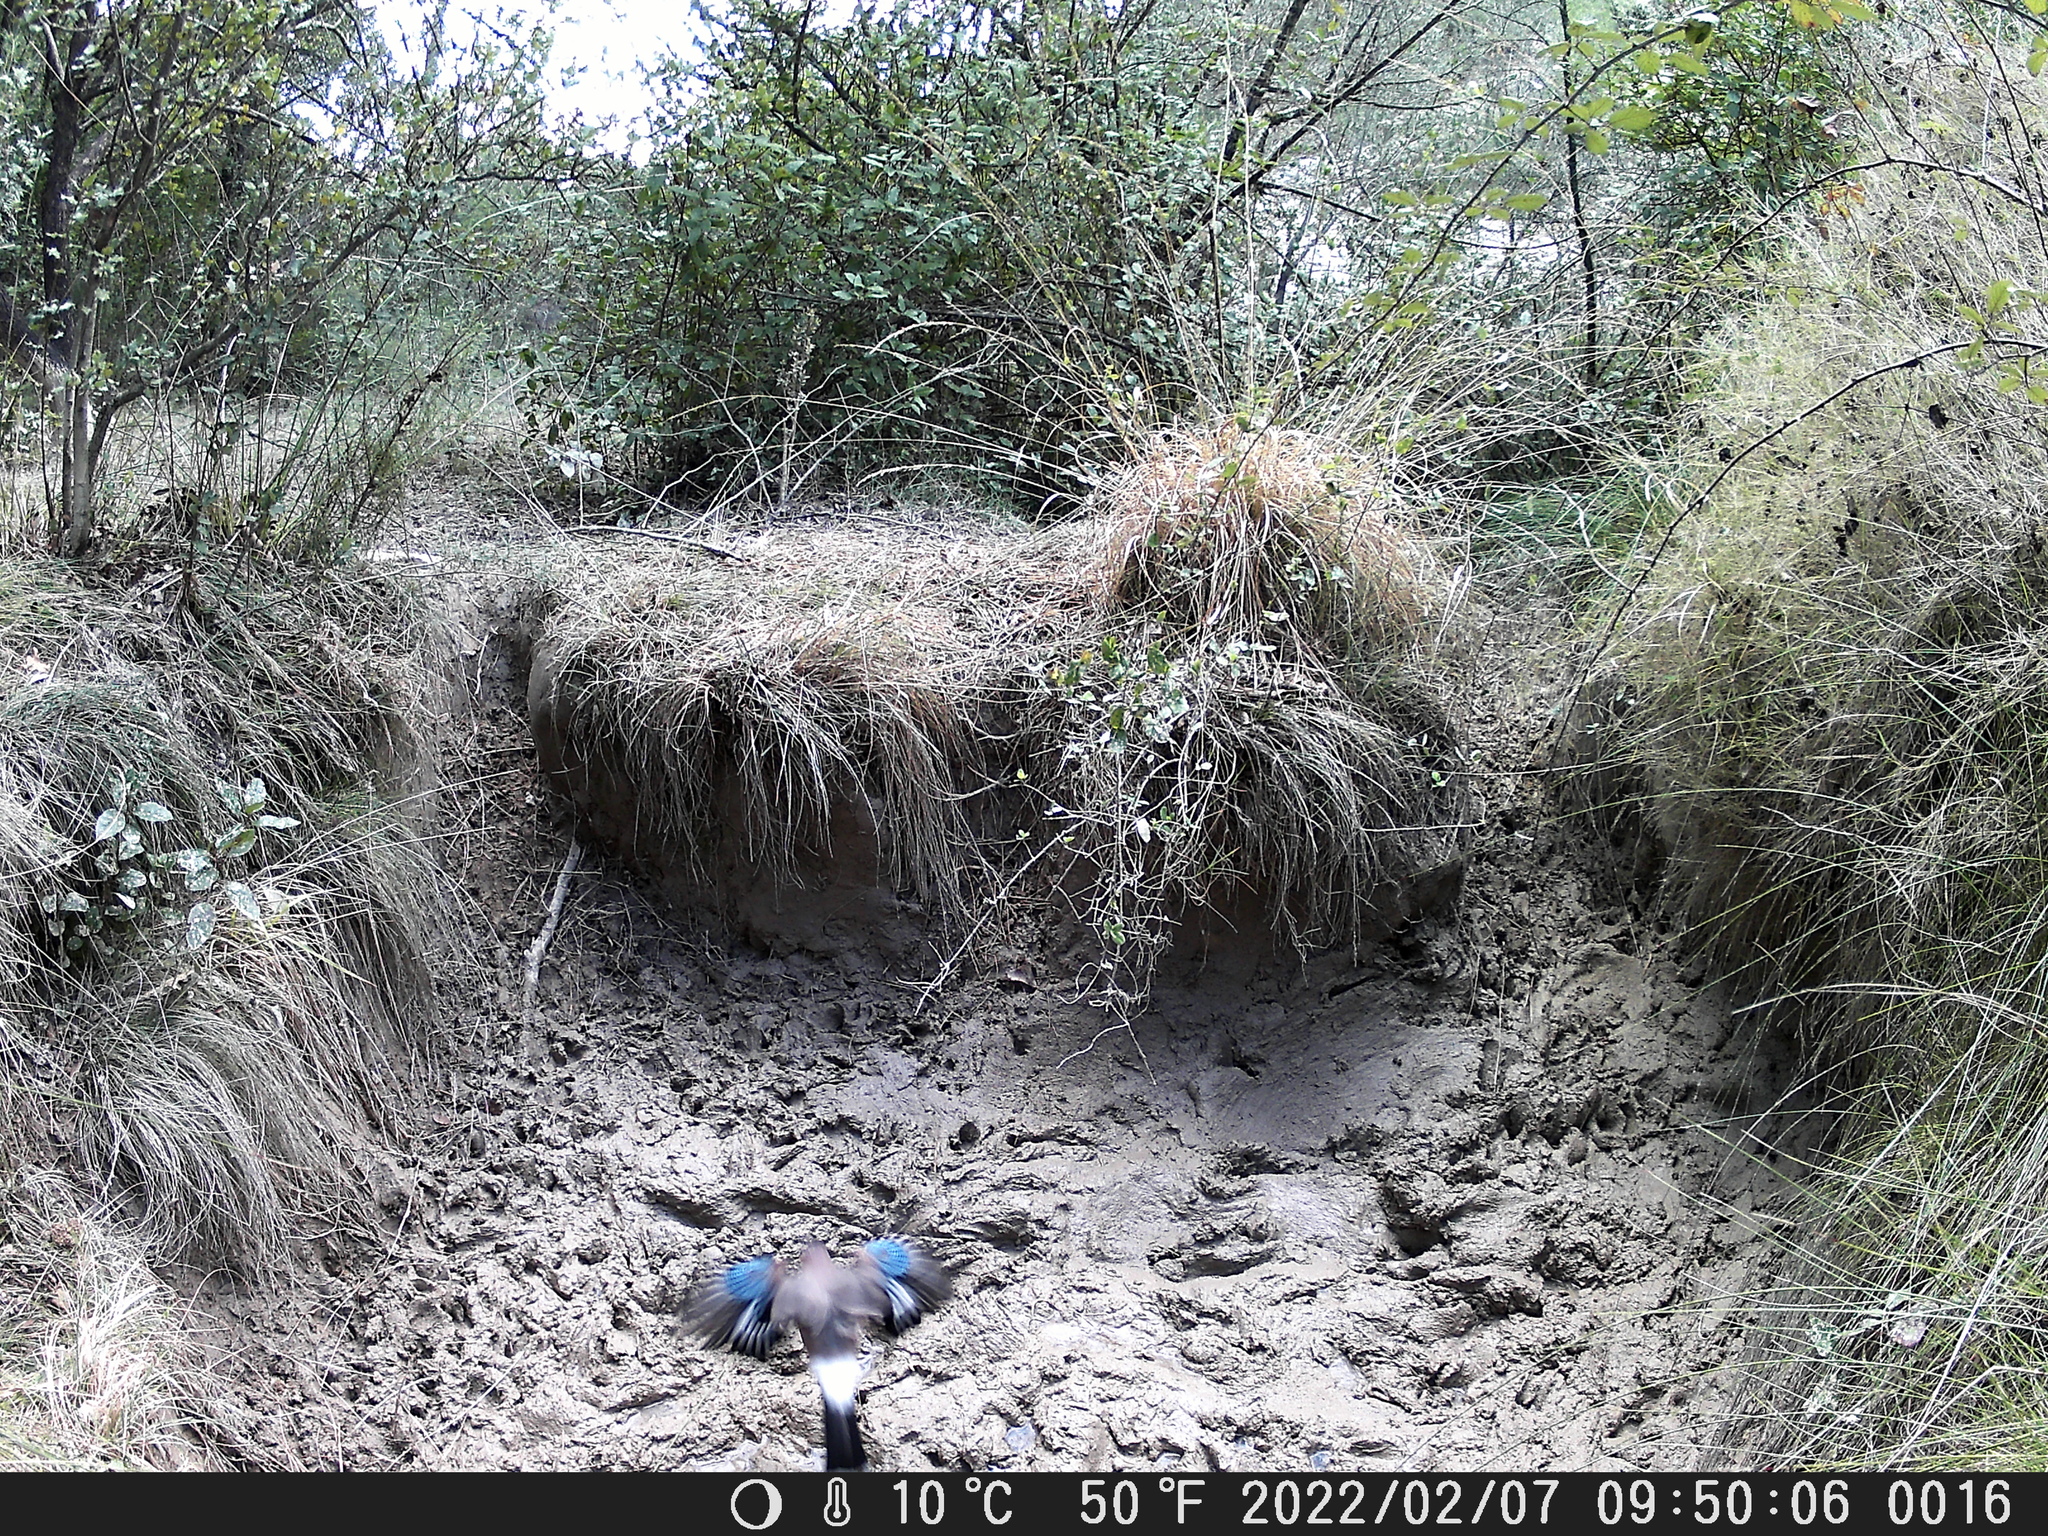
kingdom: Animalia
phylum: Chordata
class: Aves
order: Passeriformes
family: Corvidae
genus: Garrulus
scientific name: Garrulus glandarius
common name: Eurasian jay
